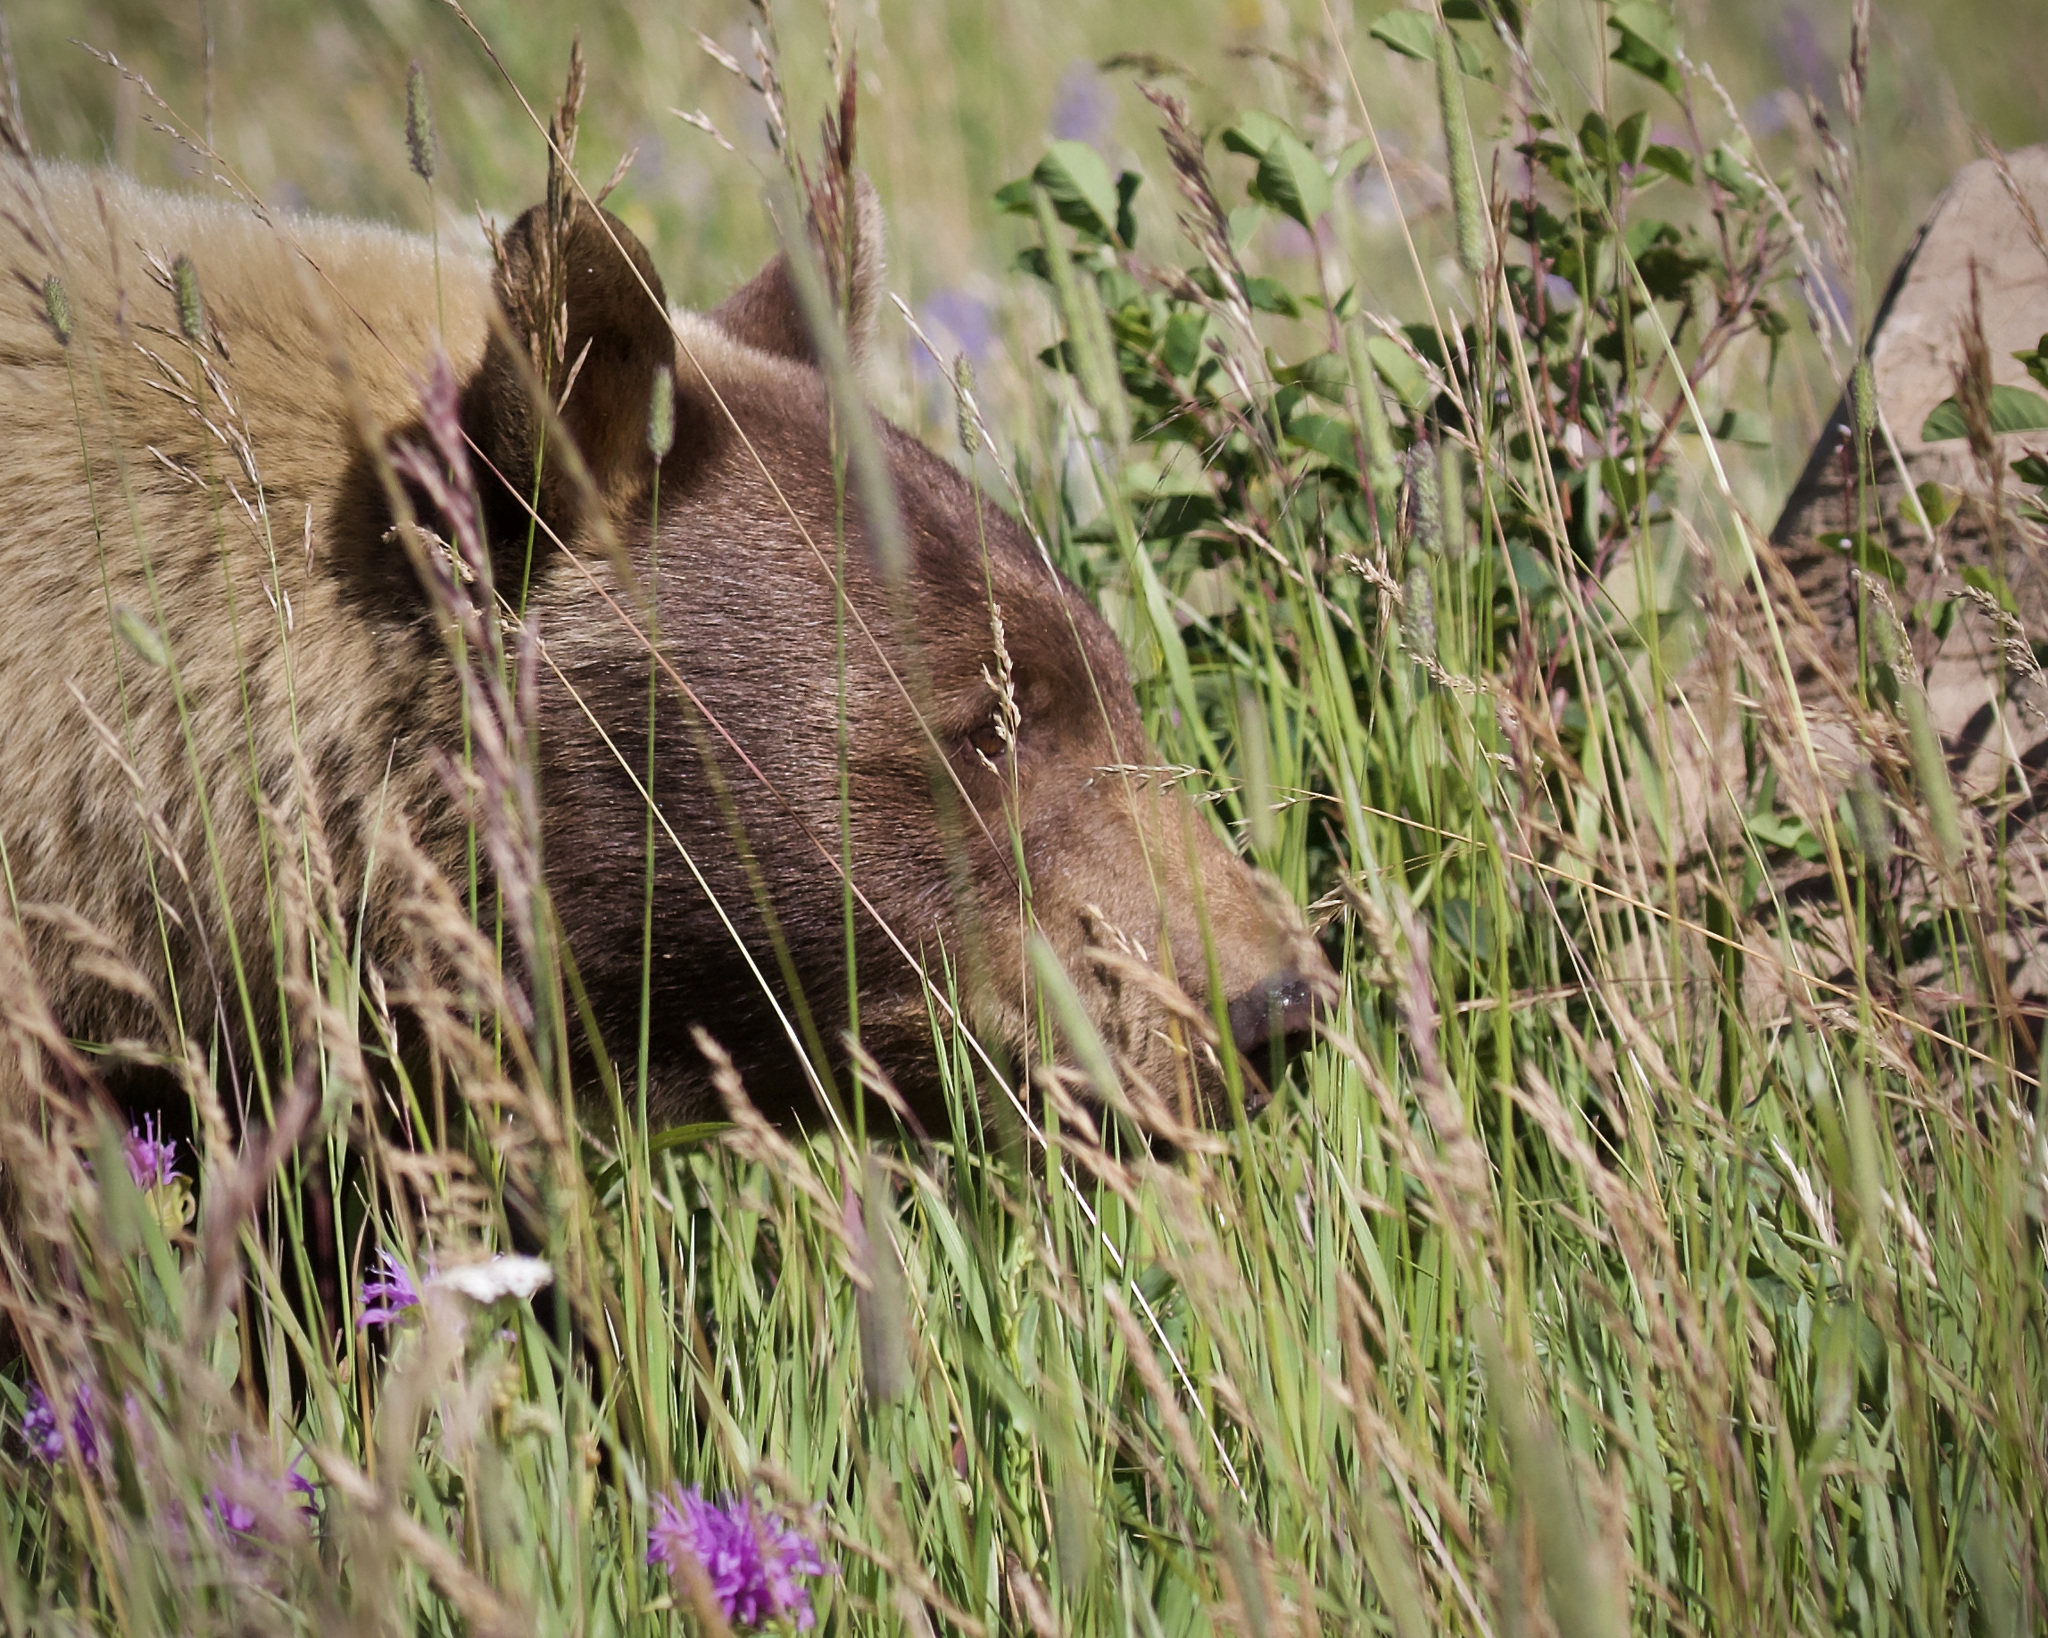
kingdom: Animalia
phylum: Chordata
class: Mammalia
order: Carnivora
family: Ursidae
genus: Ursus
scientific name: Ursus americanus
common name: American black bear
